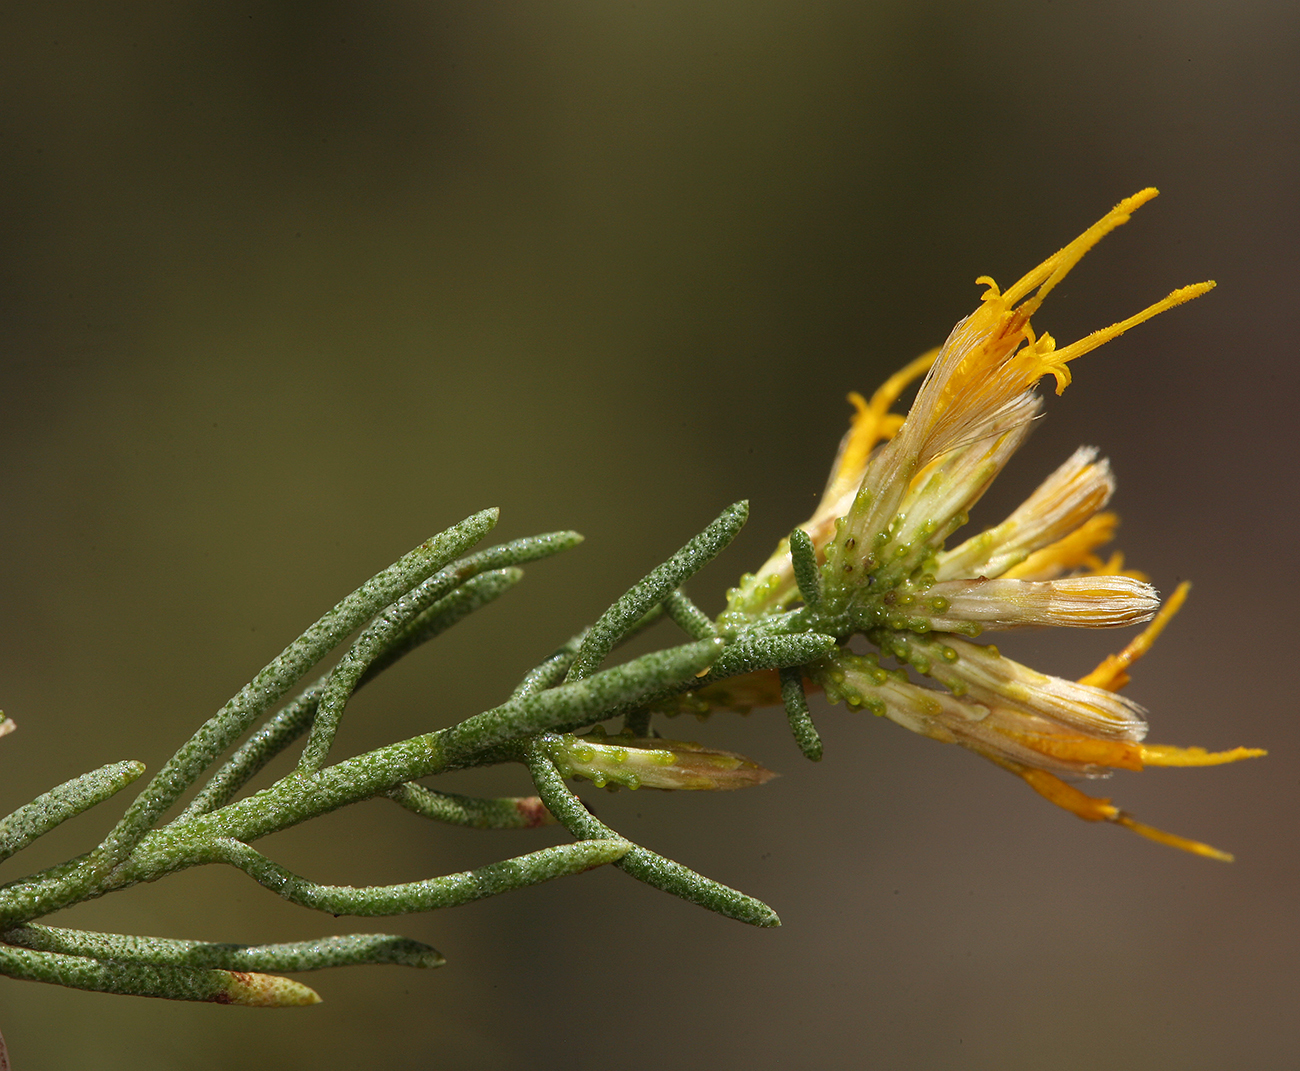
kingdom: Plantae
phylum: Tracheophyta
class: Magnoliopsida
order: Asterales
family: Asteraceae
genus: Ericameria
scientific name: Ericameria teretifolia
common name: Round-leaf rabbitbrush
